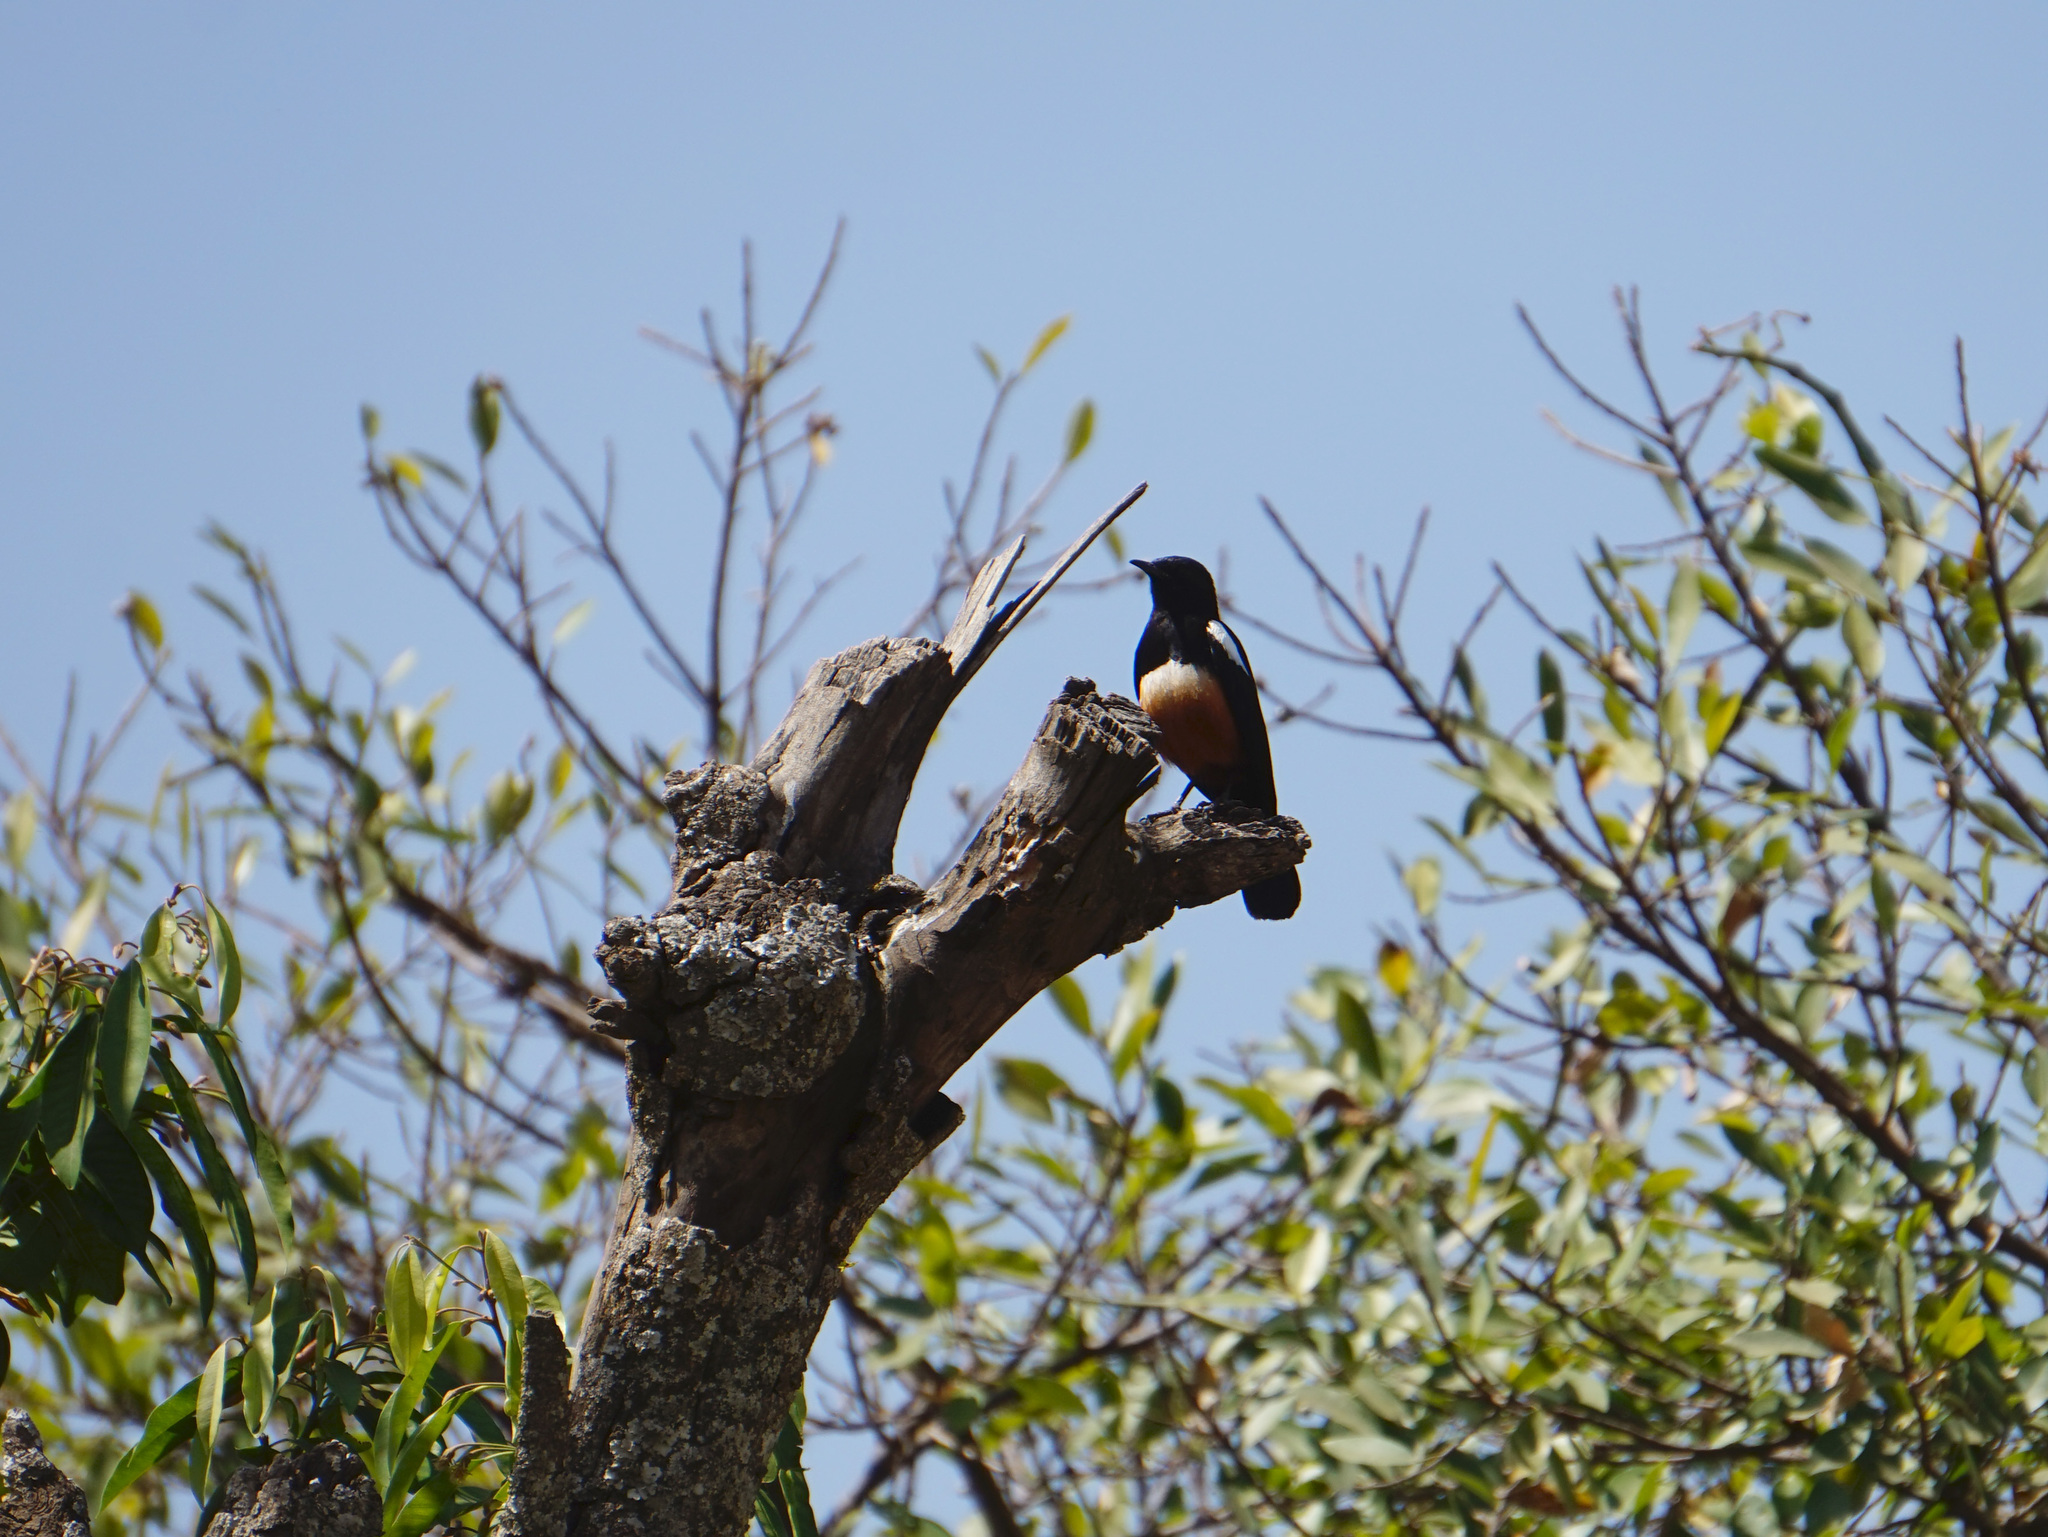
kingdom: Animalia
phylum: Chordata
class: Aves
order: Passeriformes
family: Muscicapidae
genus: Thamnolaea
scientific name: Thamnolaea cinnamomeiventris
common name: Mocking cliff chat
